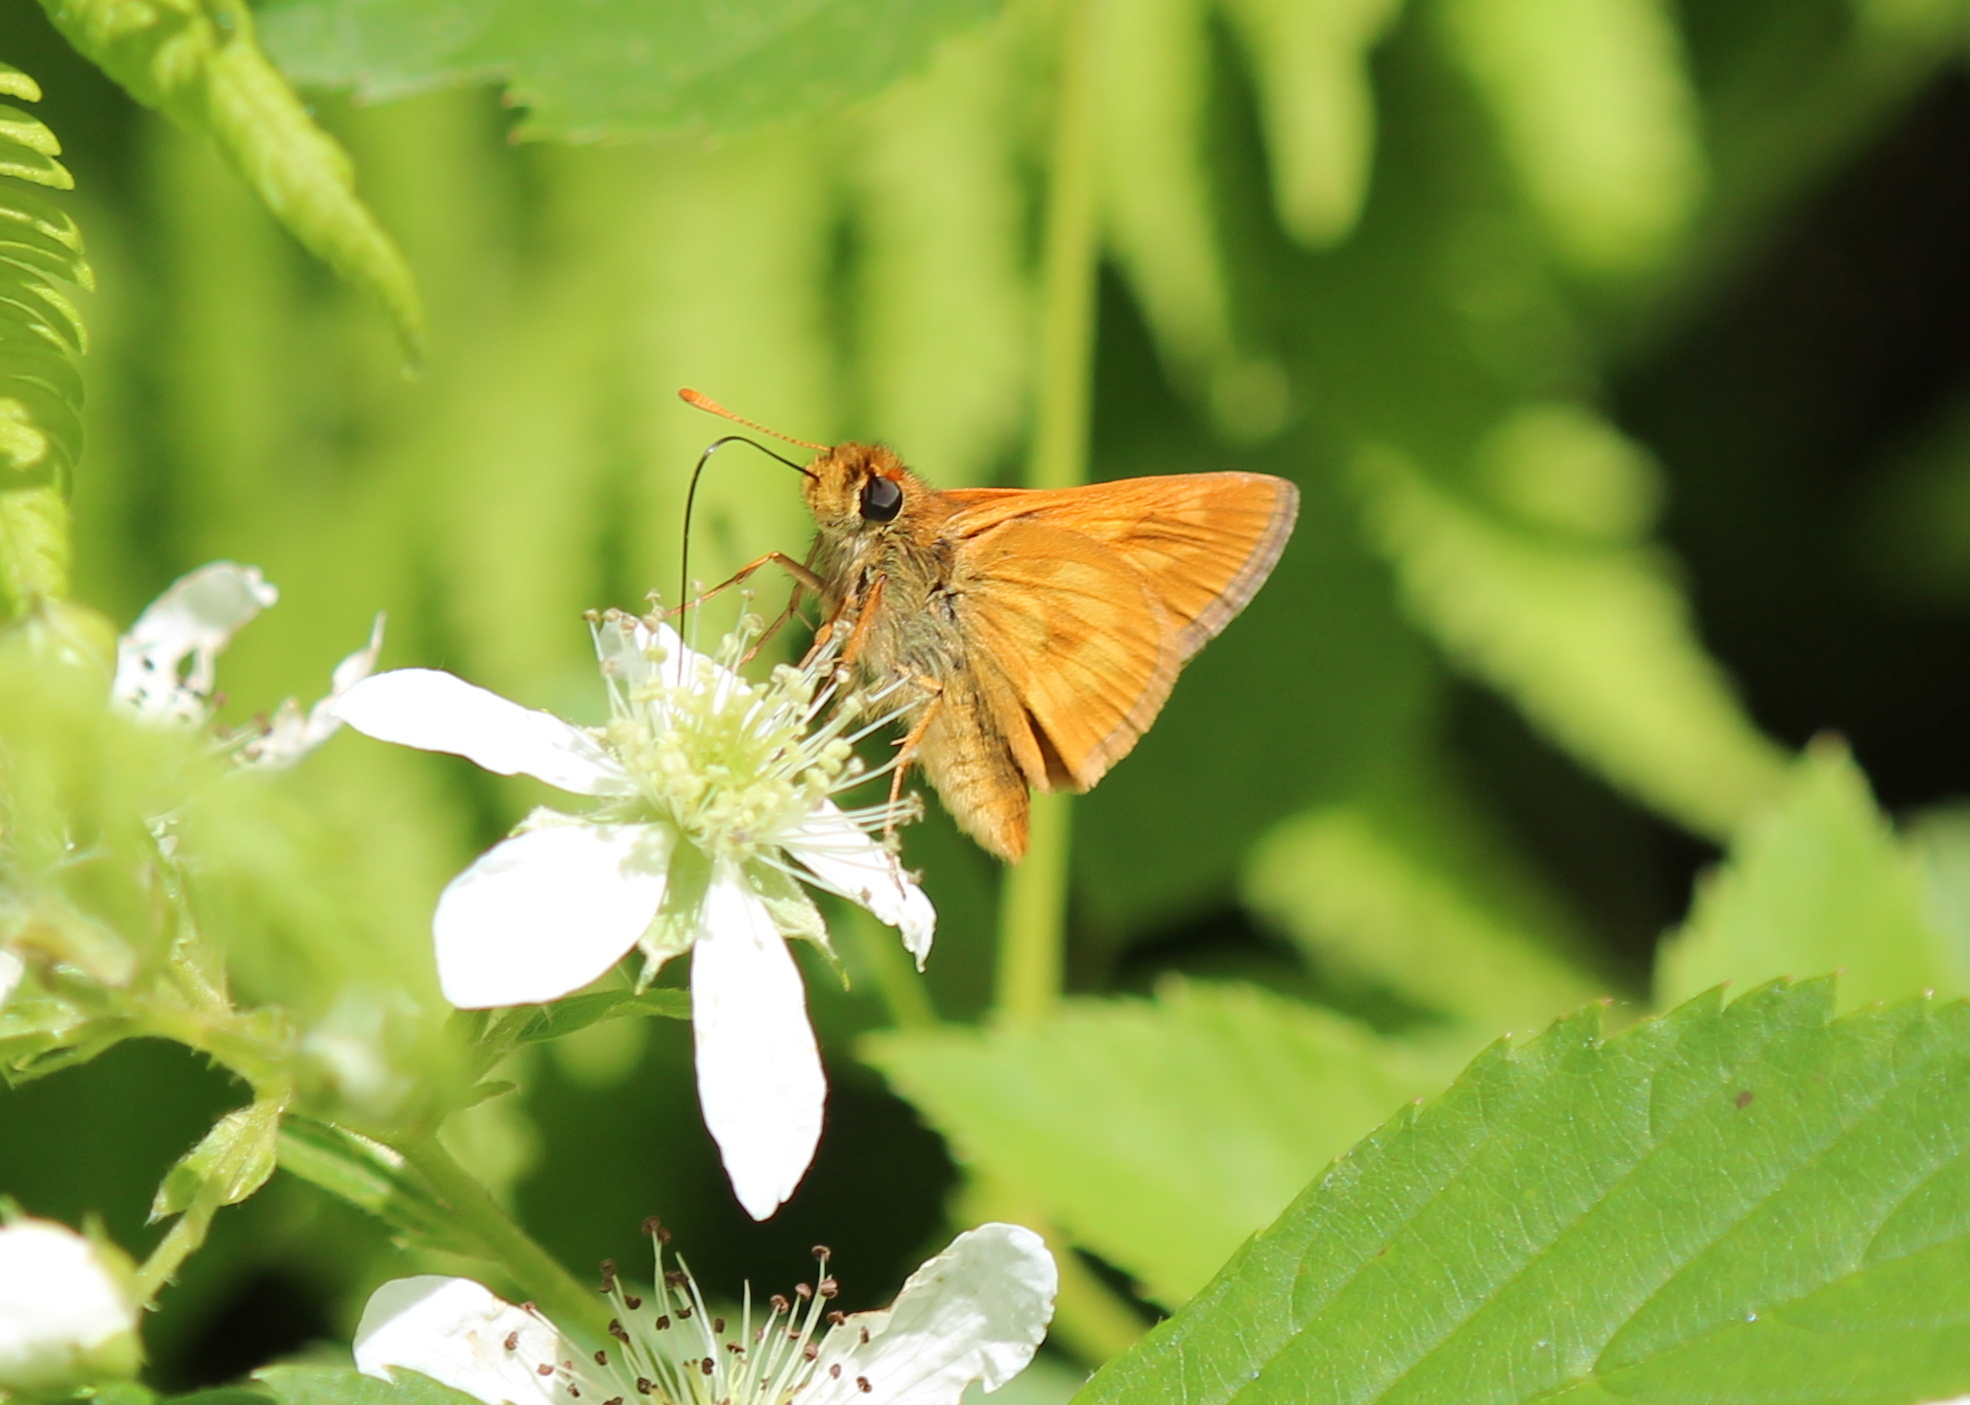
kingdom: Animalia
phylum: Arthropoda
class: Insecta
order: Lepidoptera
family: Hesperiidae
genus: Polites
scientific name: Polites mystic
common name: Long dash
